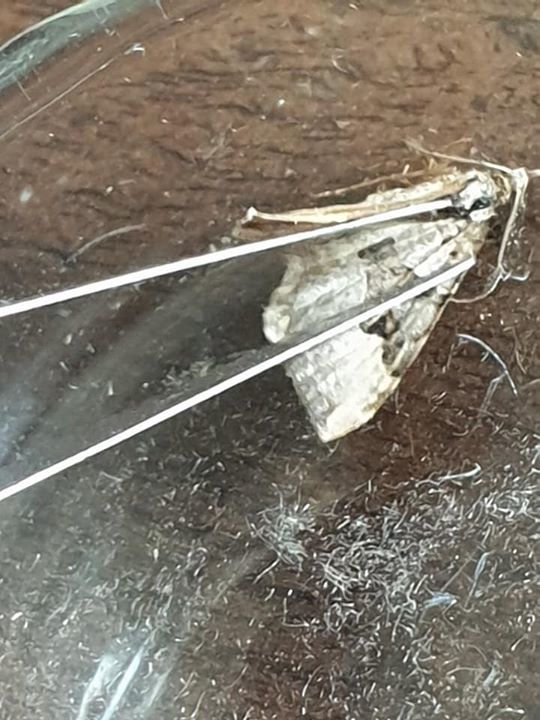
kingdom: Animalia
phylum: Arthropoda
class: Insecta
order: Lepidoptera
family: Geometridae
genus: Epyaxa
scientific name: Epyaxa rosearia
